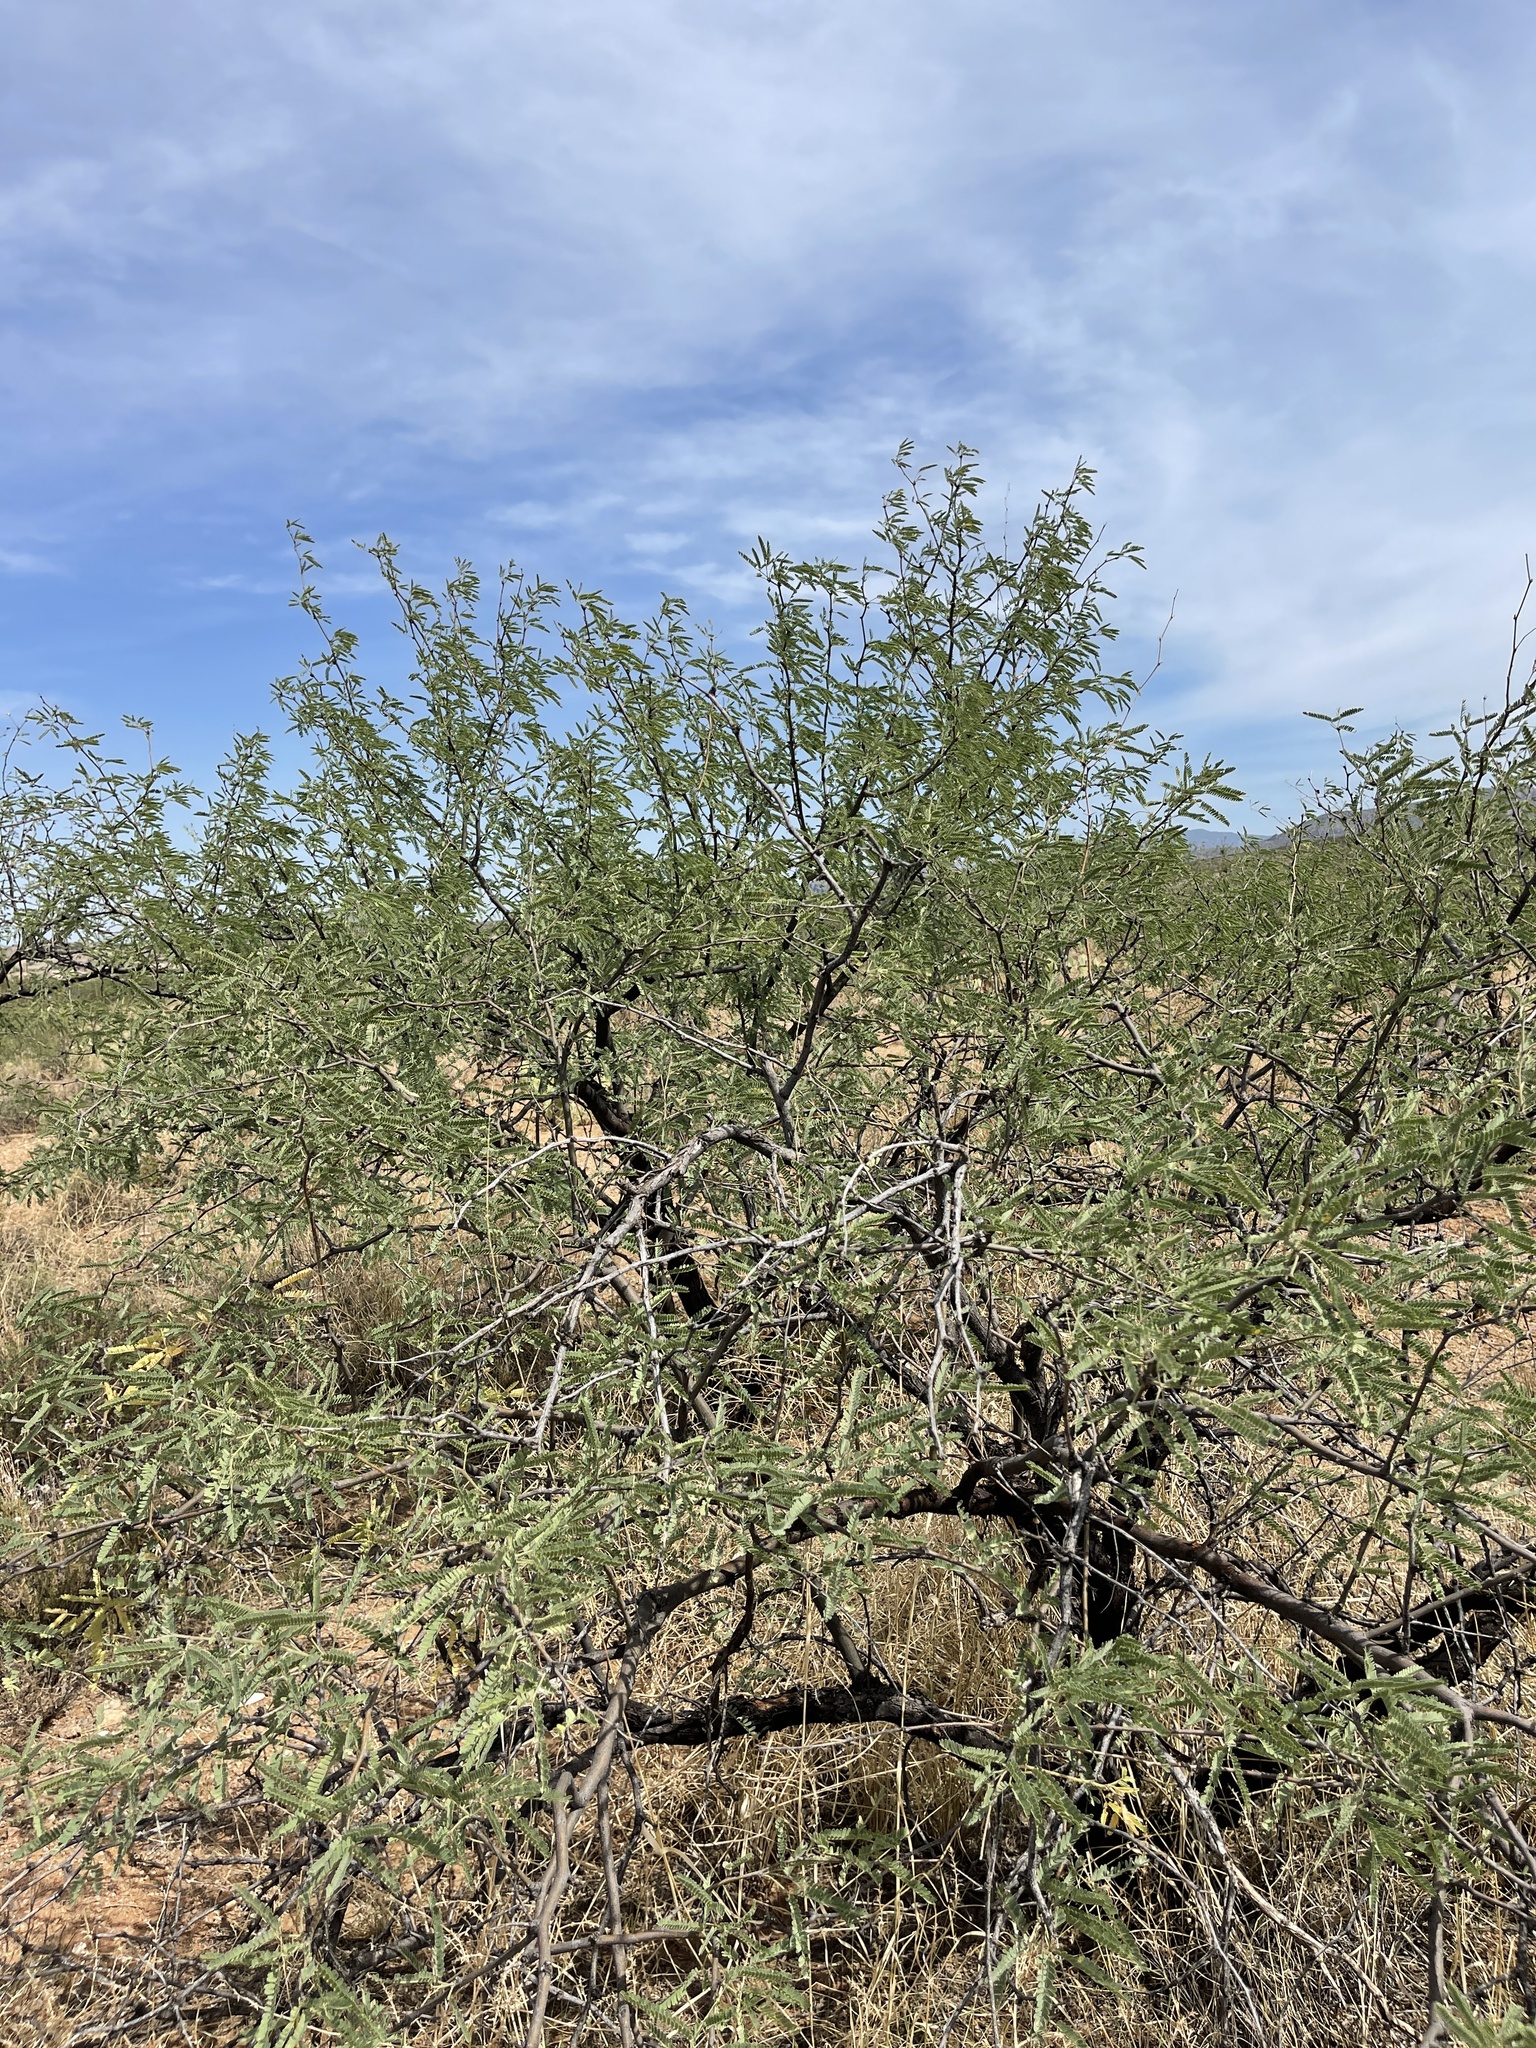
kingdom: Plantae
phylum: Tracheophyta
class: Magnoliopsida
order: Fabales
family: Fabaceae
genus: Prosopis
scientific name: Prosopis velutina
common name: Velvet mesquite
